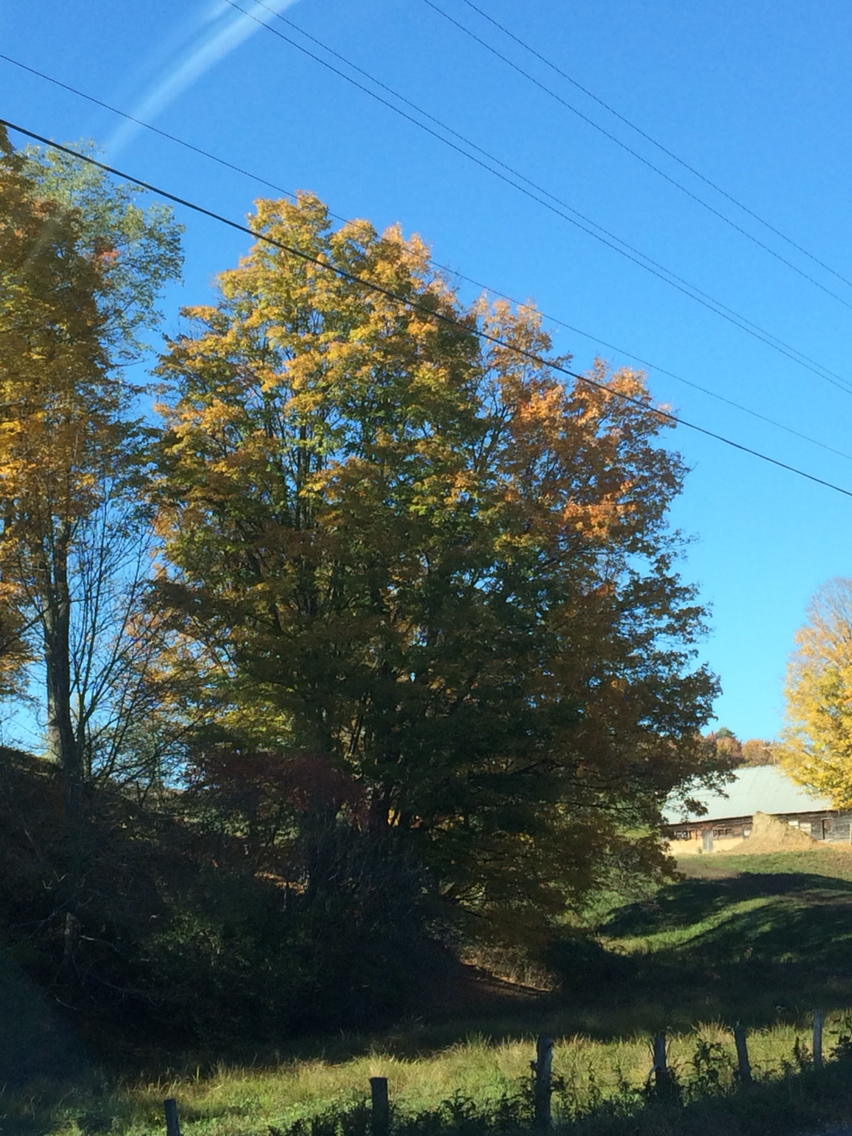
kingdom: Plantae
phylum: Tracheophyta
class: Magnoliopsida
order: Sapindales
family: Sapindaceae
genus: Acer
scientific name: Acer saccharum
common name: Sugar maple
